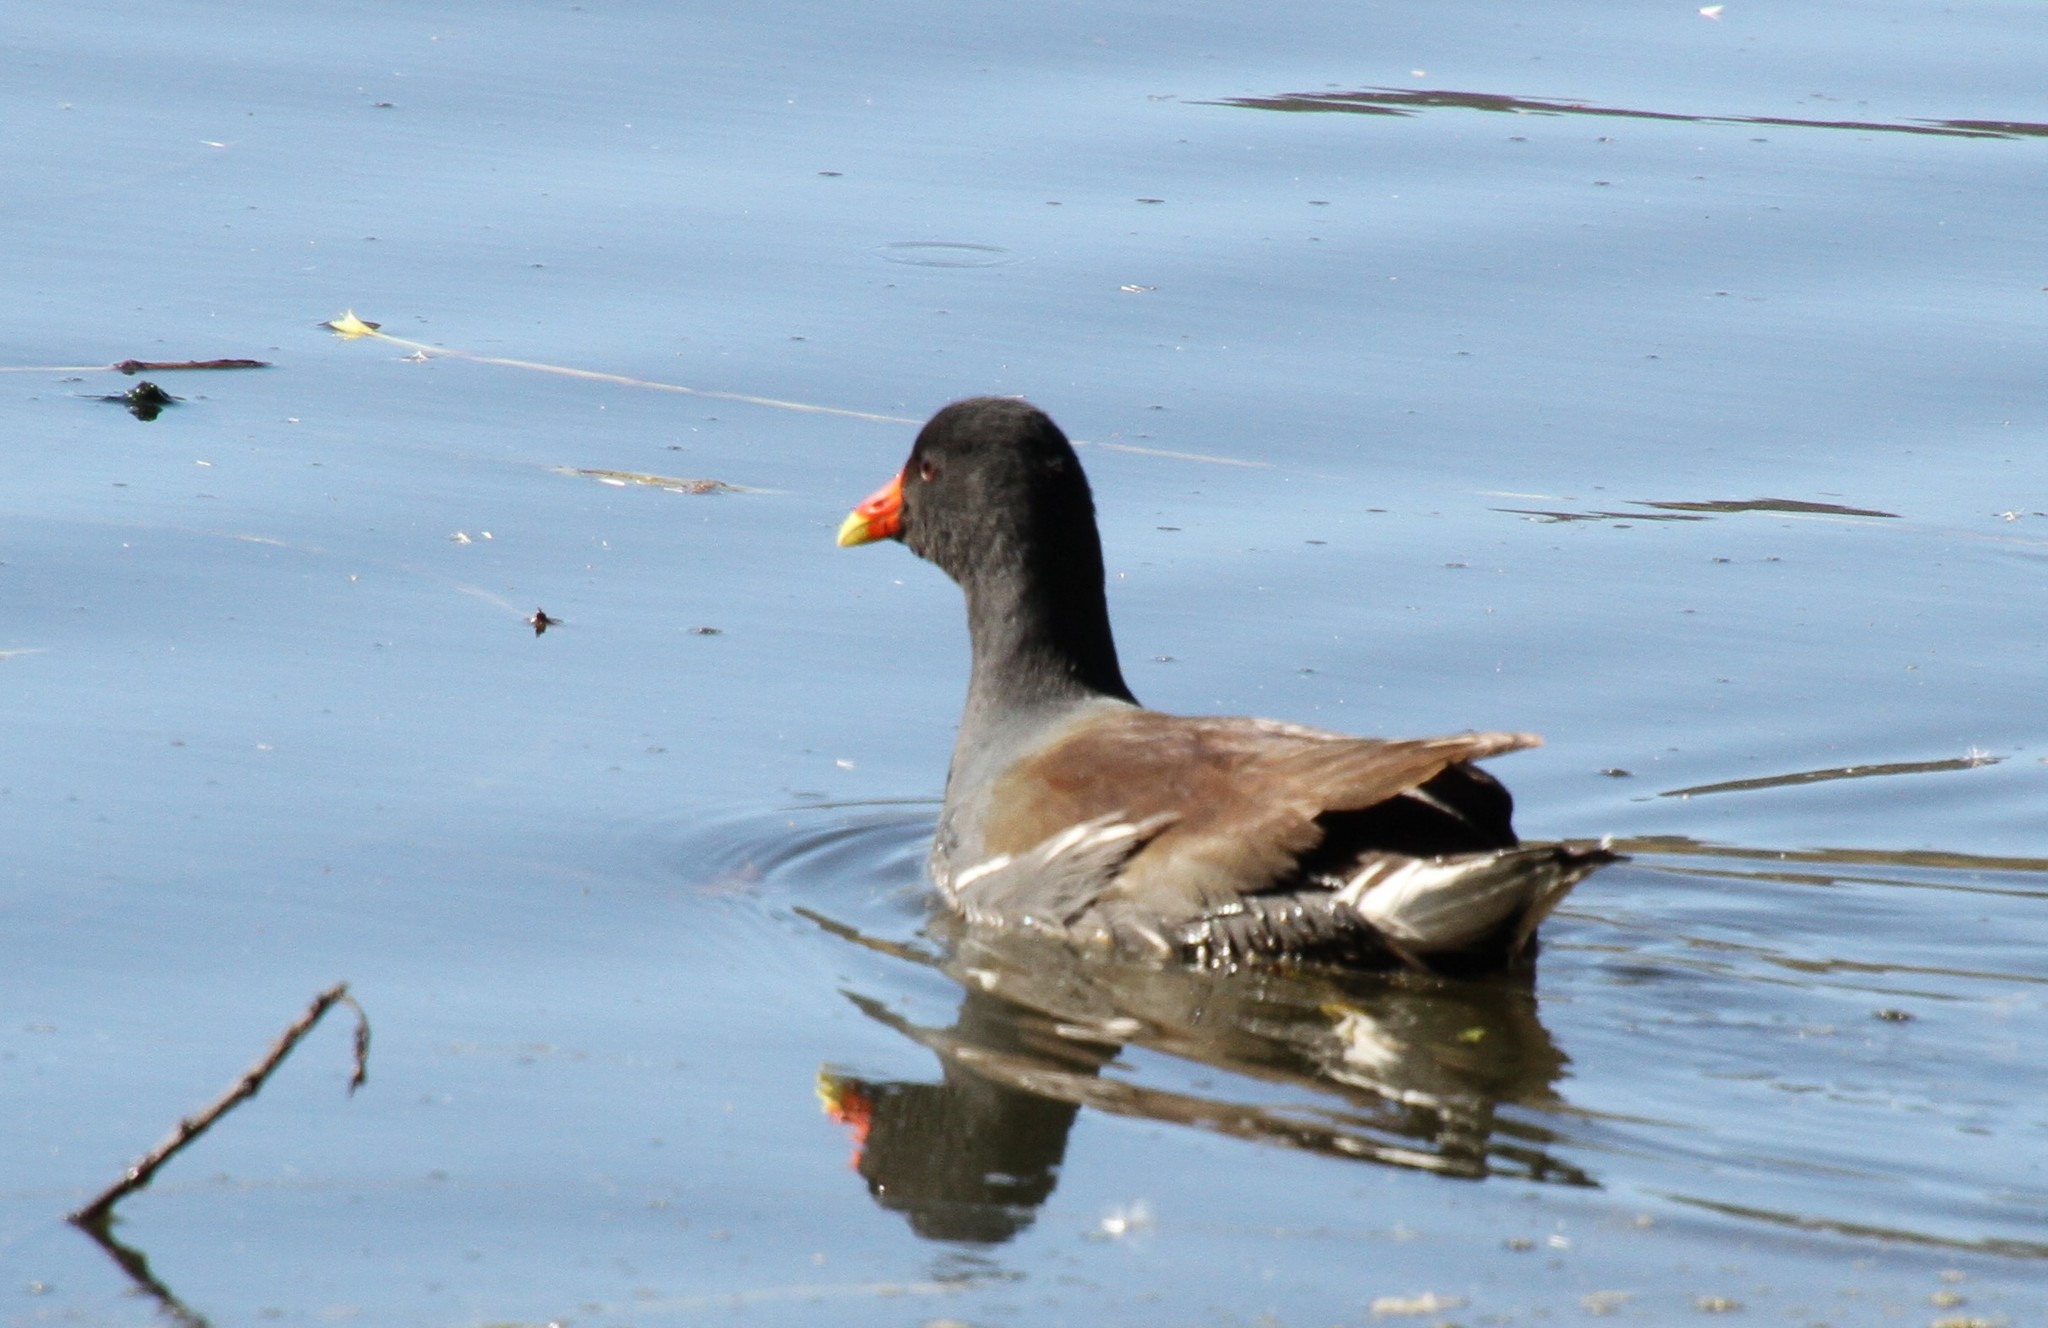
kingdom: Animalia
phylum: Chordata
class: Aves
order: Gruiformes
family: Rallidae
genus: Gallinula
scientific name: Gallinula chloropus
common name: Common moorhen
